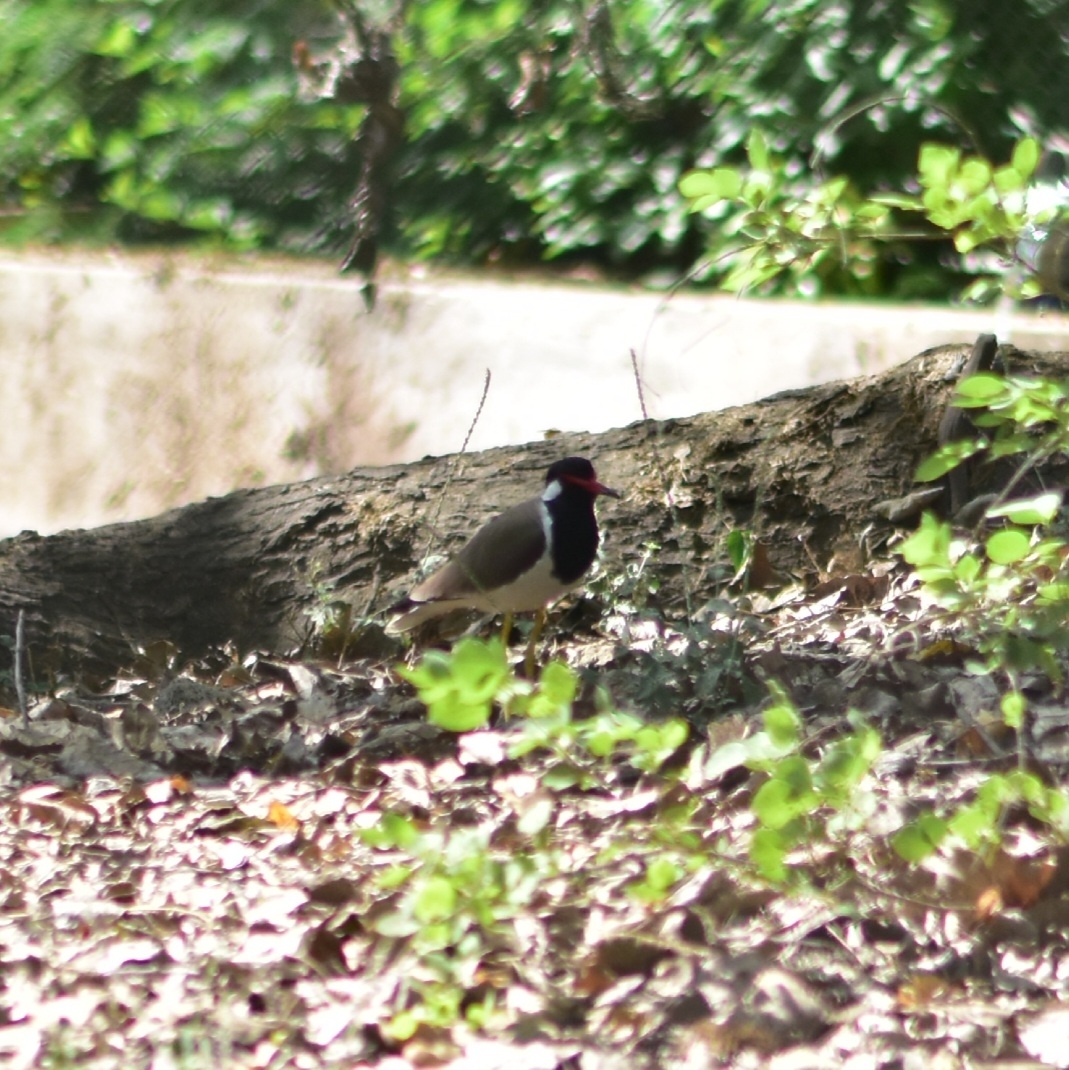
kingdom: Animalia
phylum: Chordata
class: Aves
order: Charadriiformes
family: Charadriidae
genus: Vanellus
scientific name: Vanellus indicus
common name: Red-wattled lapwing
